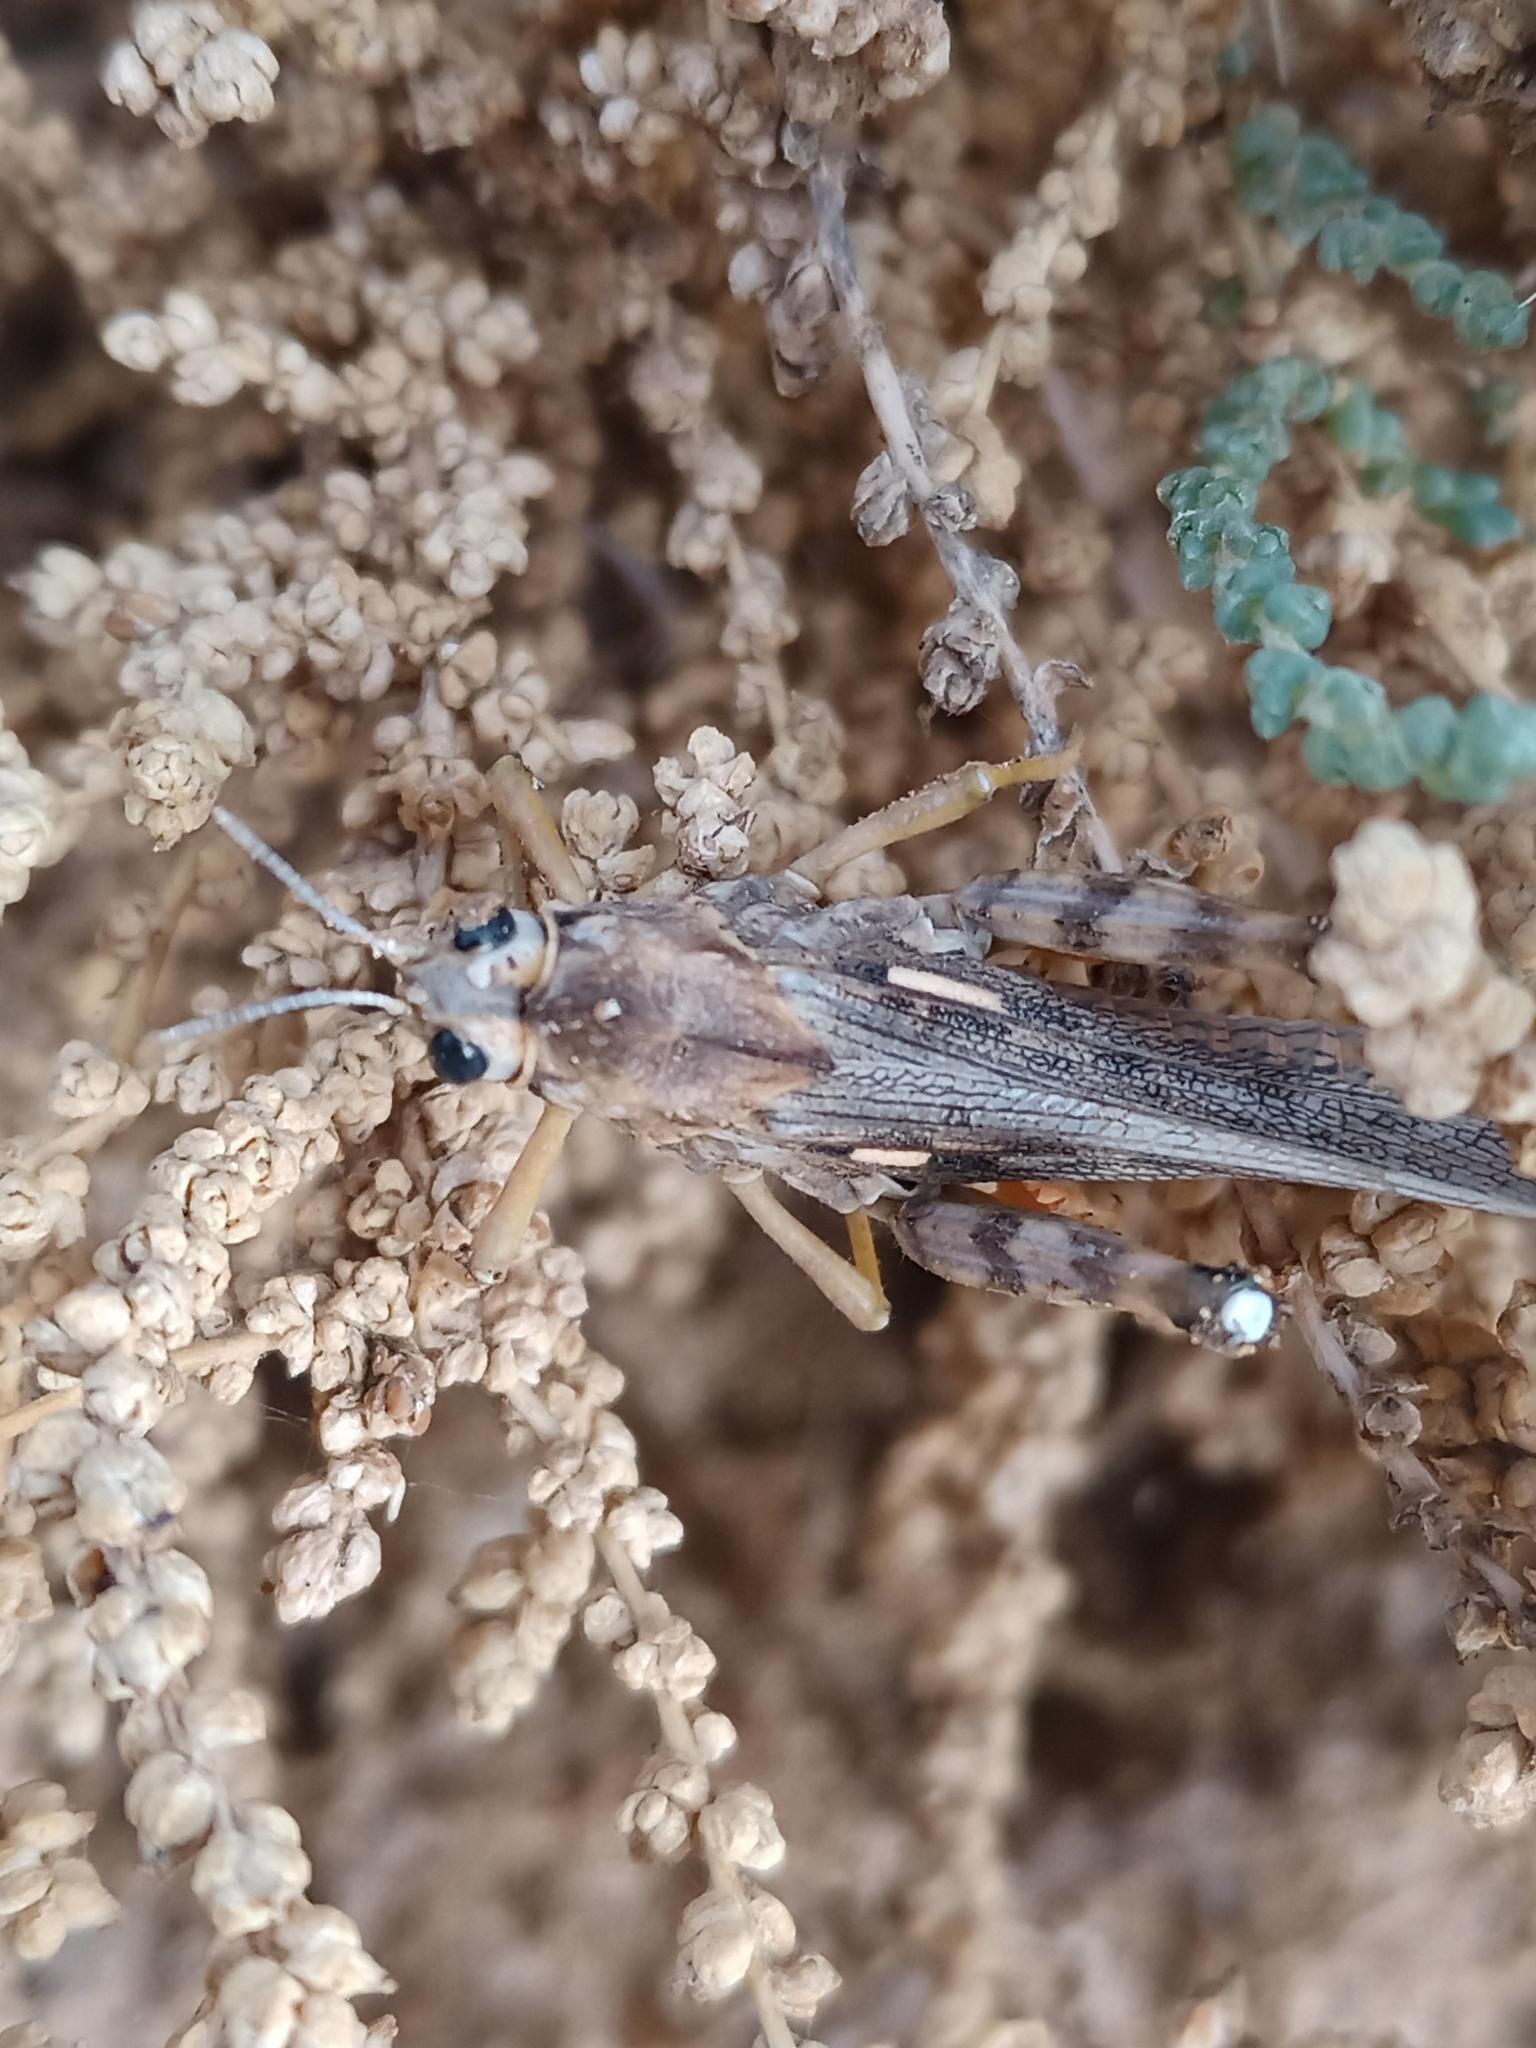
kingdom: Animalia
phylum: Arthropoda
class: Insecta
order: Orthoptera
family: Dericorythidae
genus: Dericorys
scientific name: Dericorys lobata
